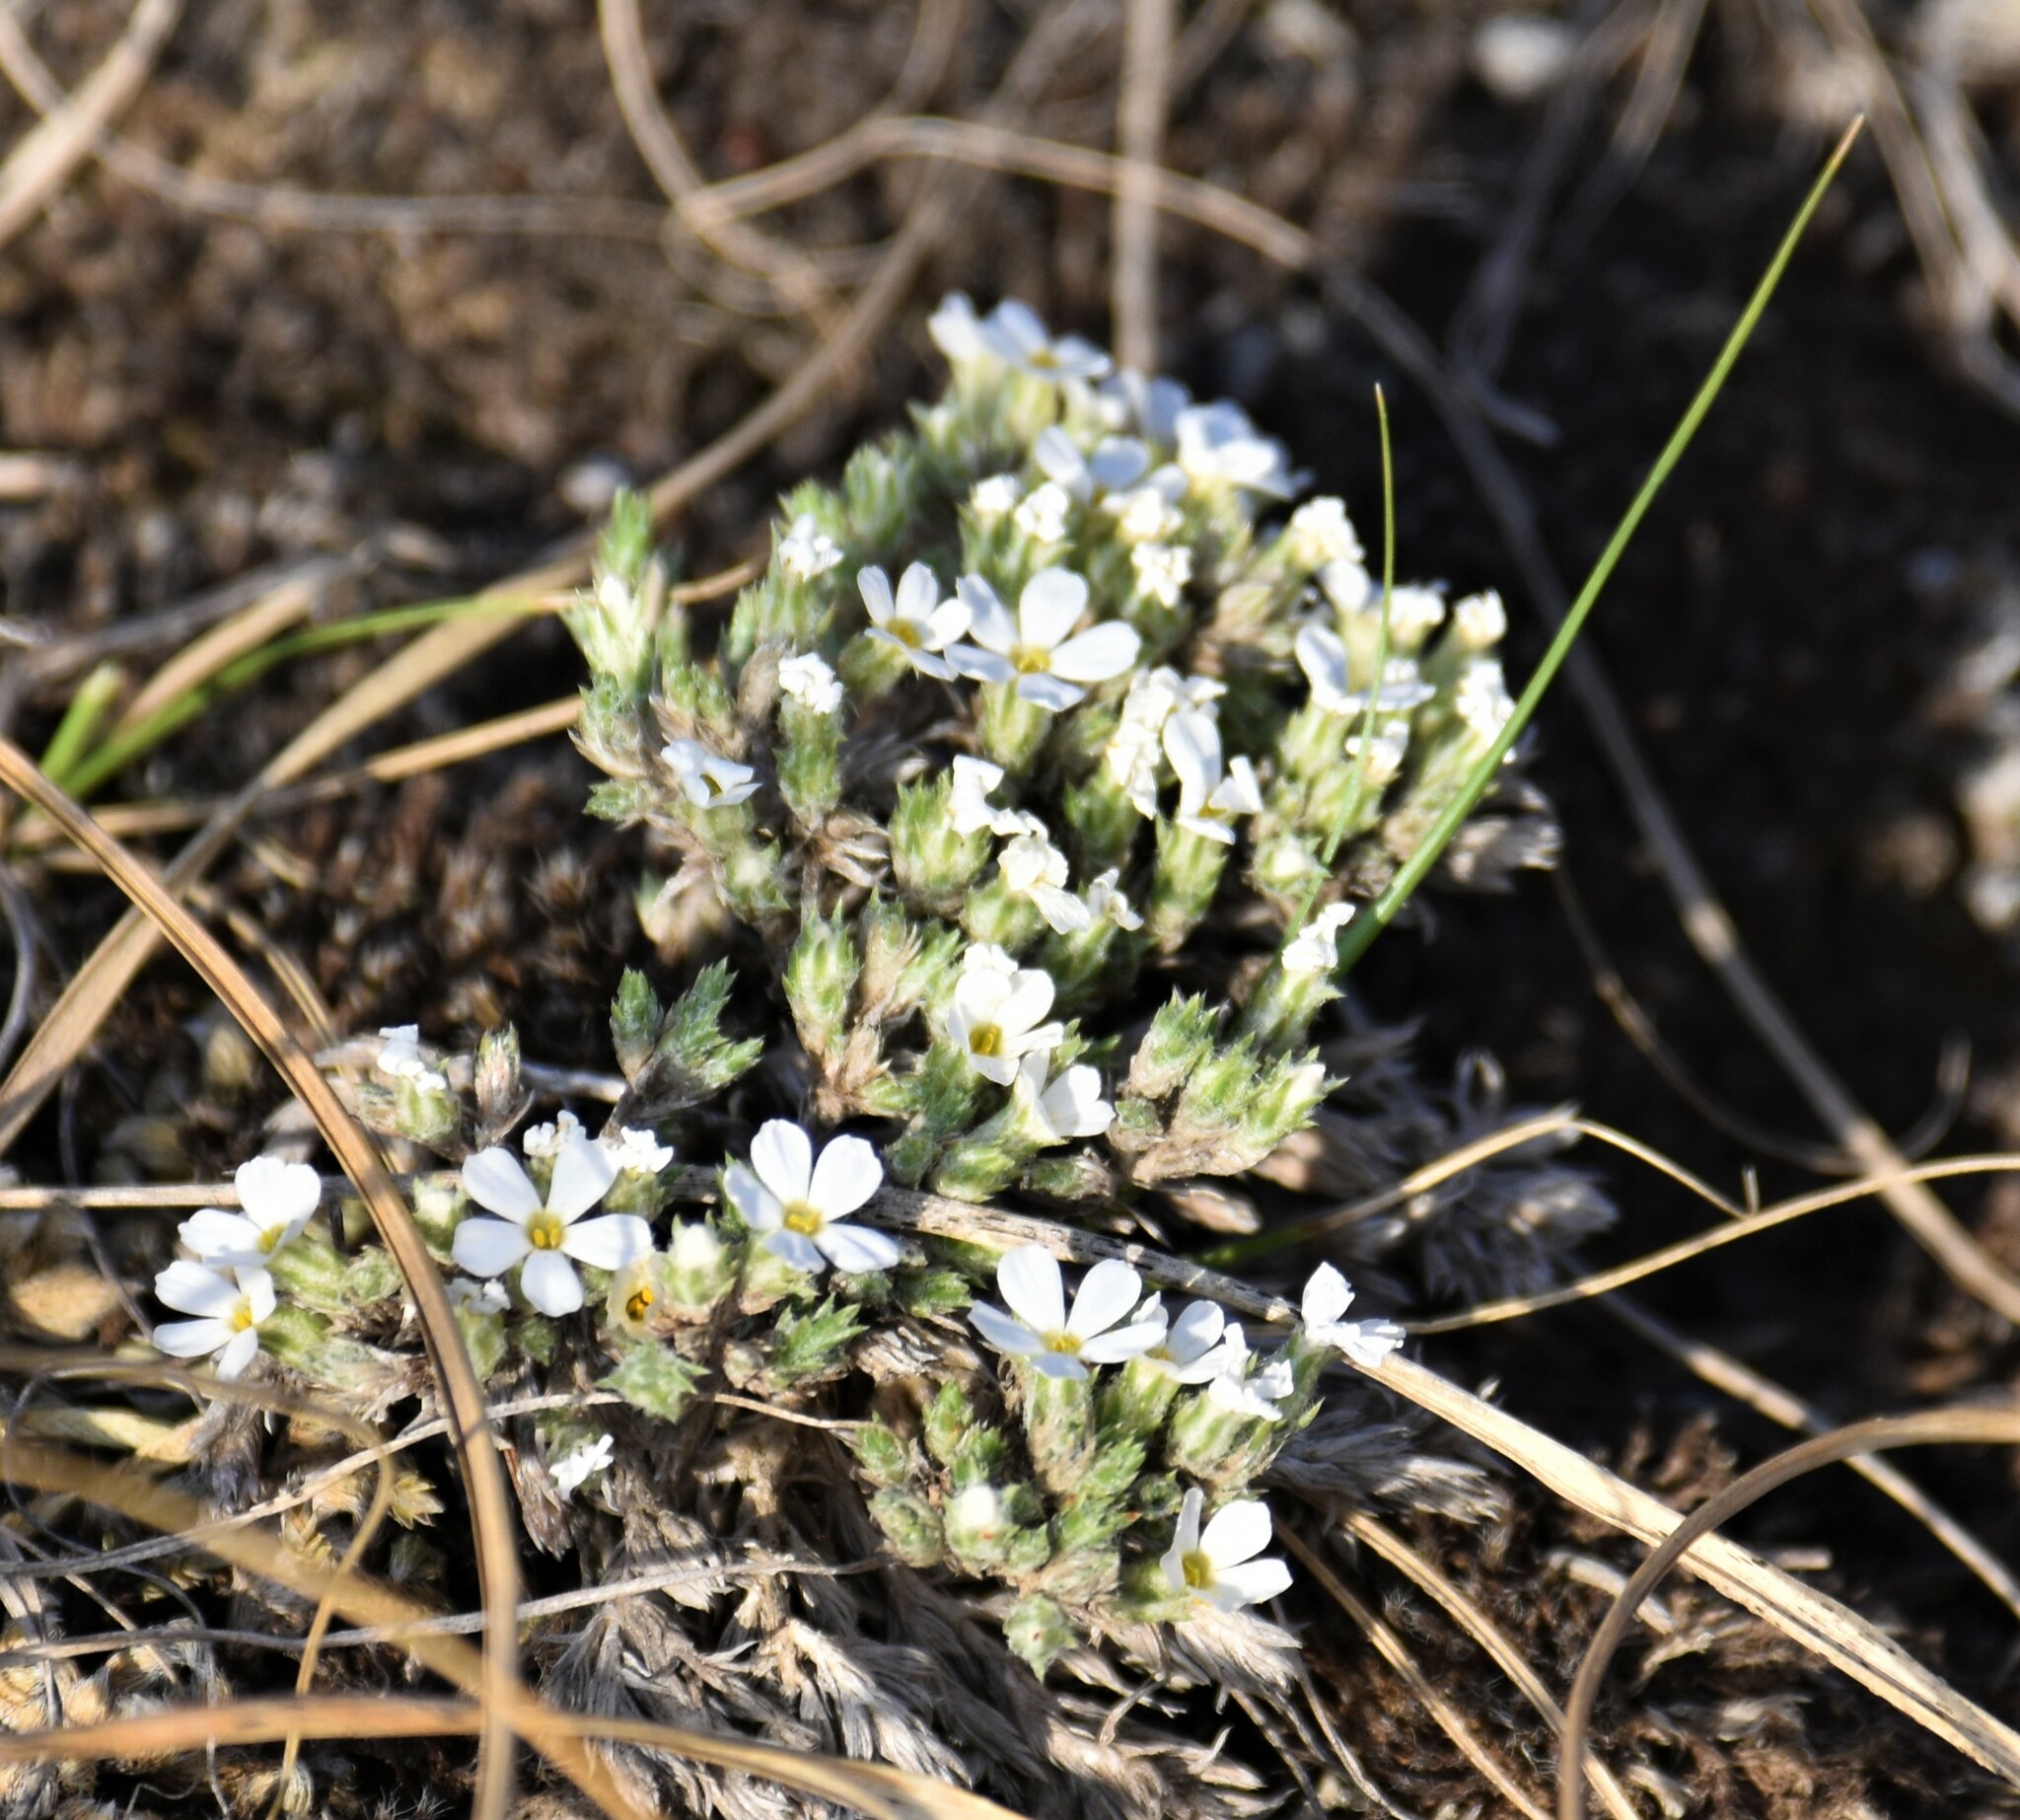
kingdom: Plantae
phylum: Tracheophyta
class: Magnoliopsida
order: Ericales
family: Polemoniaceae
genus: Phlox
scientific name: Phlox hoodii
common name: Moss phlox
